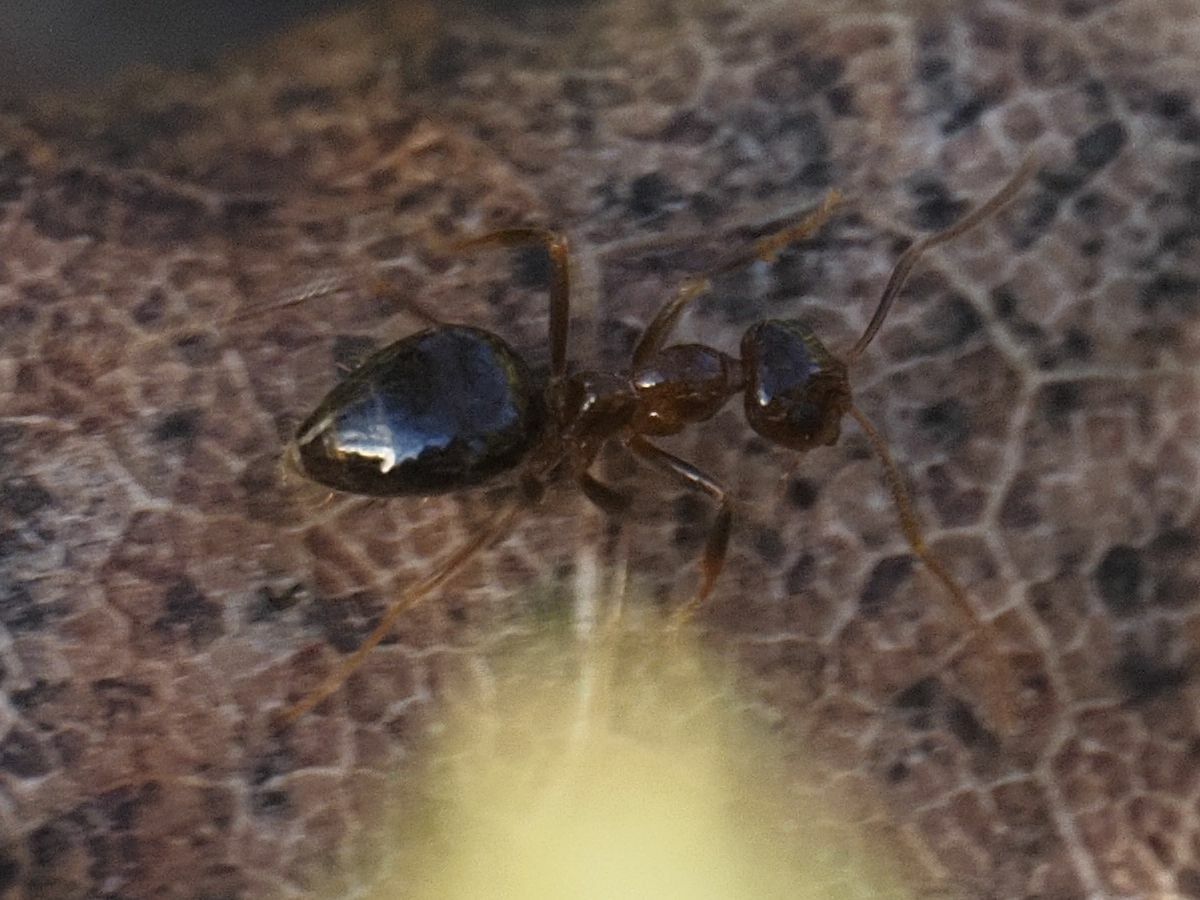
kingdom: Animalia
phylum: Arthropoda
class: Insecta
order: Hymenoptera
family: Formicidae
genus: Prenolepis
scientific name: Prenolepis nitens
